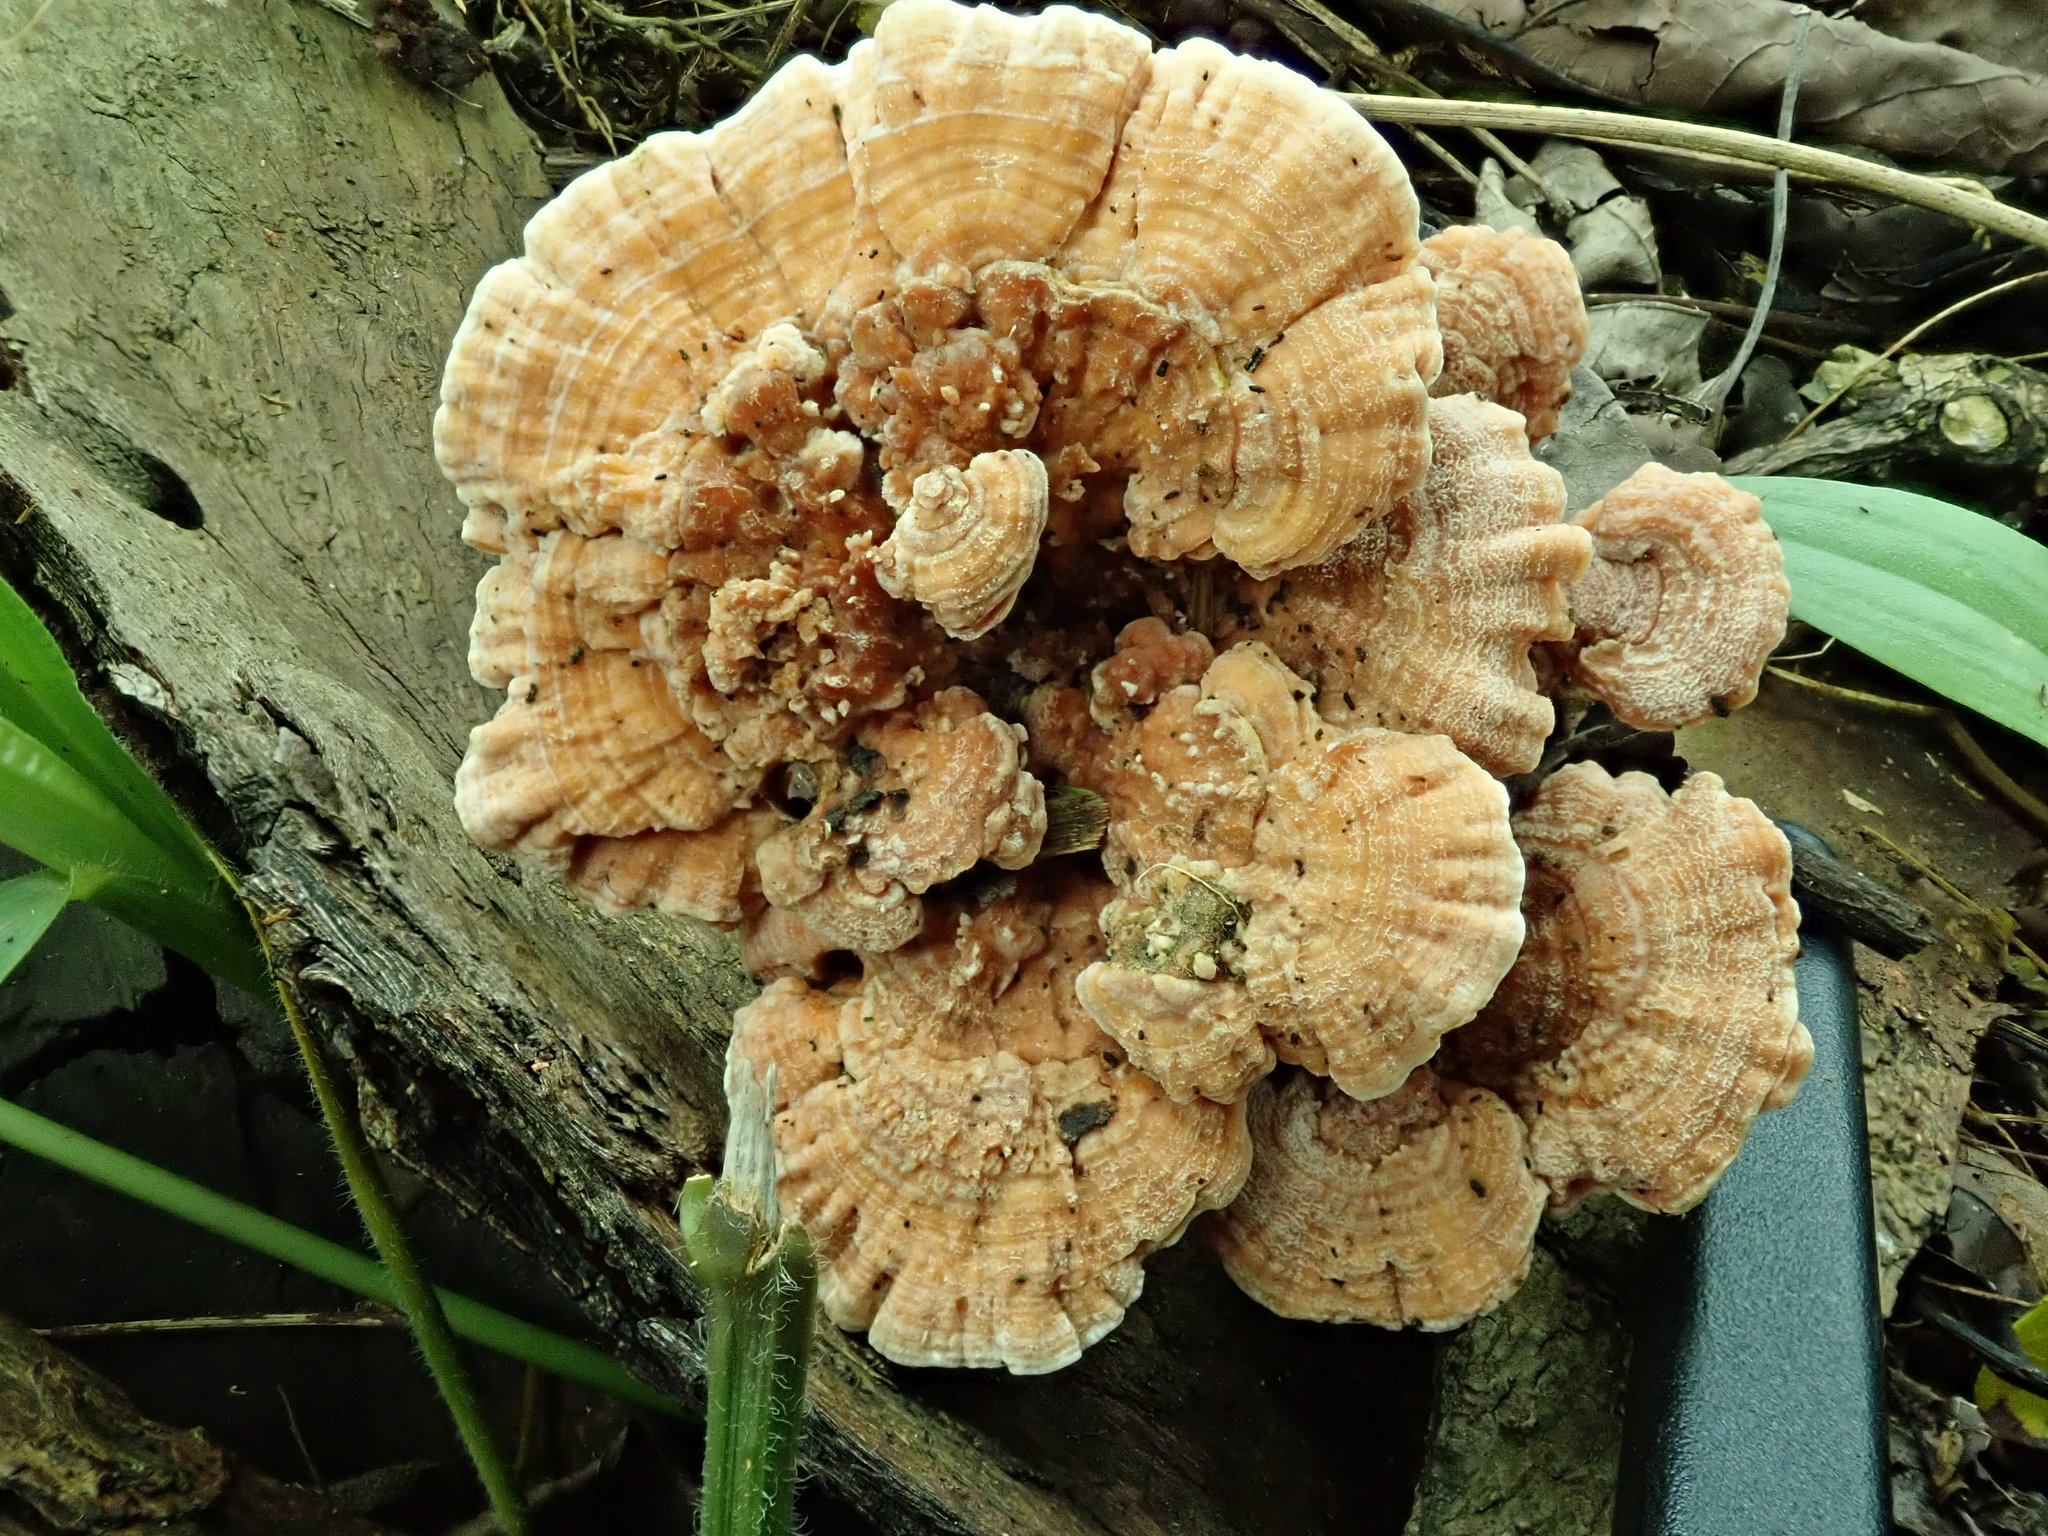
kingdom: Fungi
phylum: Basidiomycota
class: Agaricomycetes
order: Hymenochaetales
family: Oxyporaceae
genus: Oxyporus
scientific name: Oxyporus macroporus
